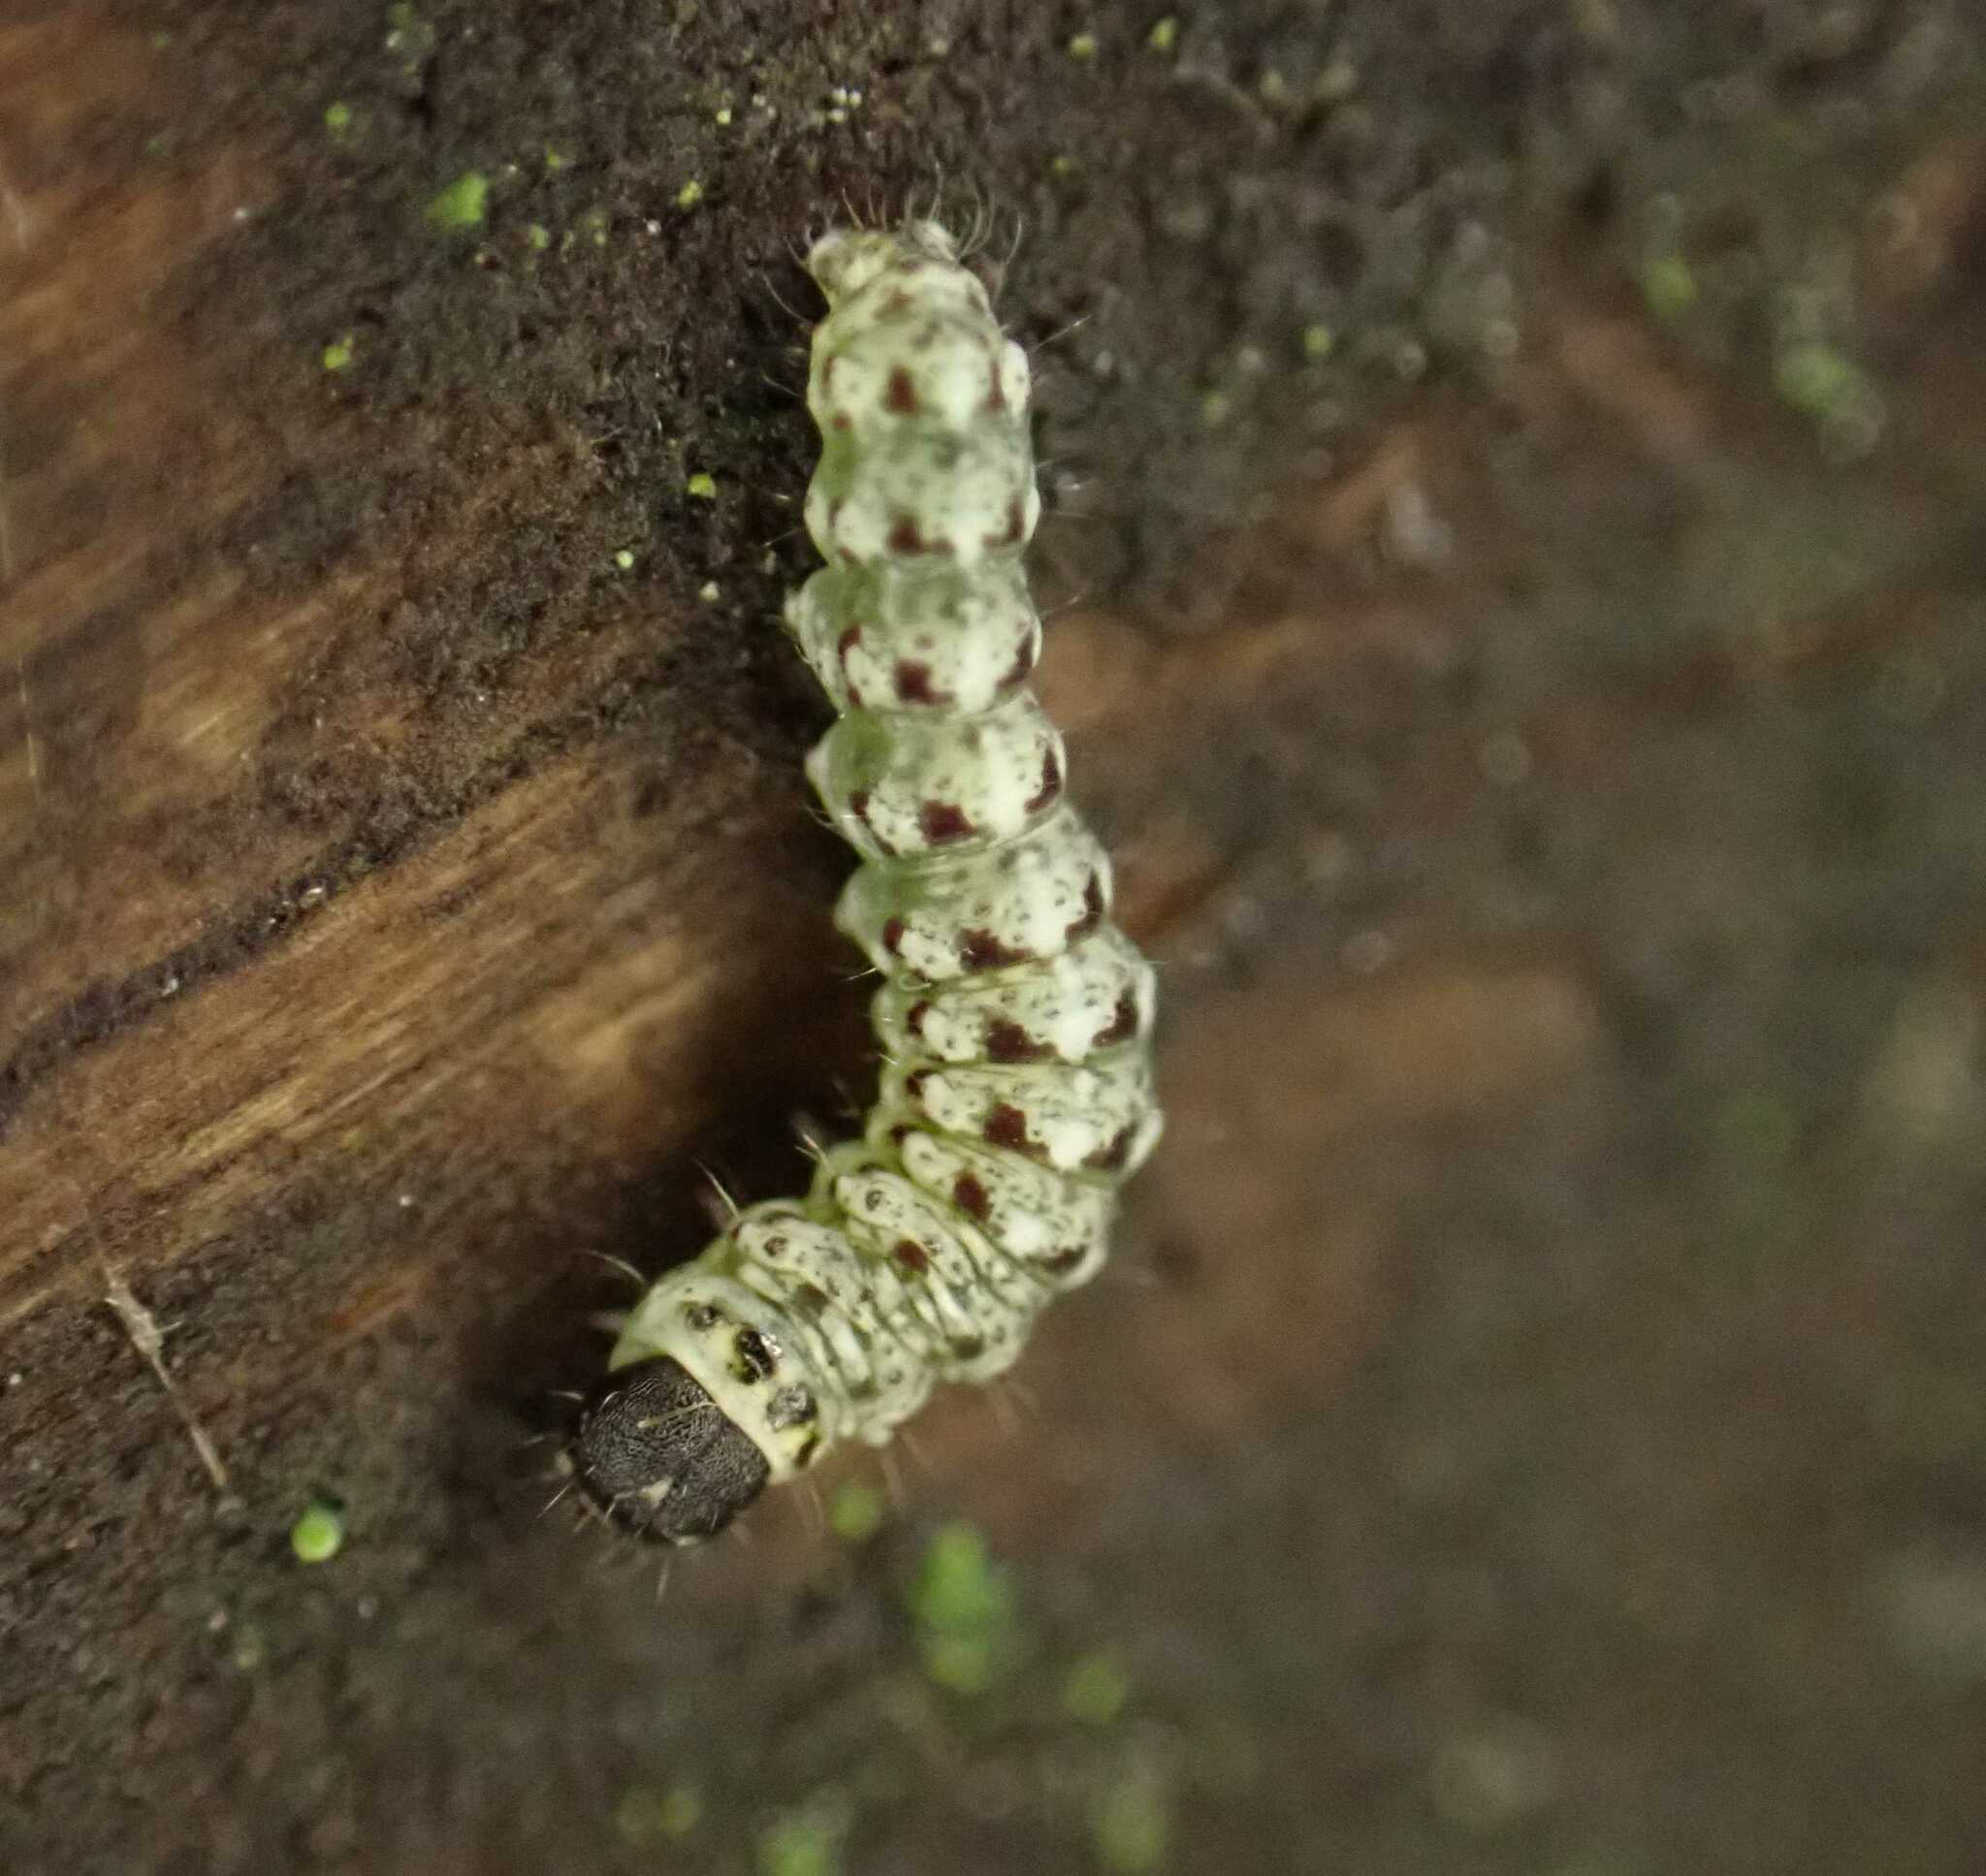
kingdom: Animalia
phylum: Arthropoda
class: Insecta
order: Lepidoptera
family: Noctuidae
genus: Cryphia
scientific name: Cryphia algae
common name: Tree-lichen beauty
